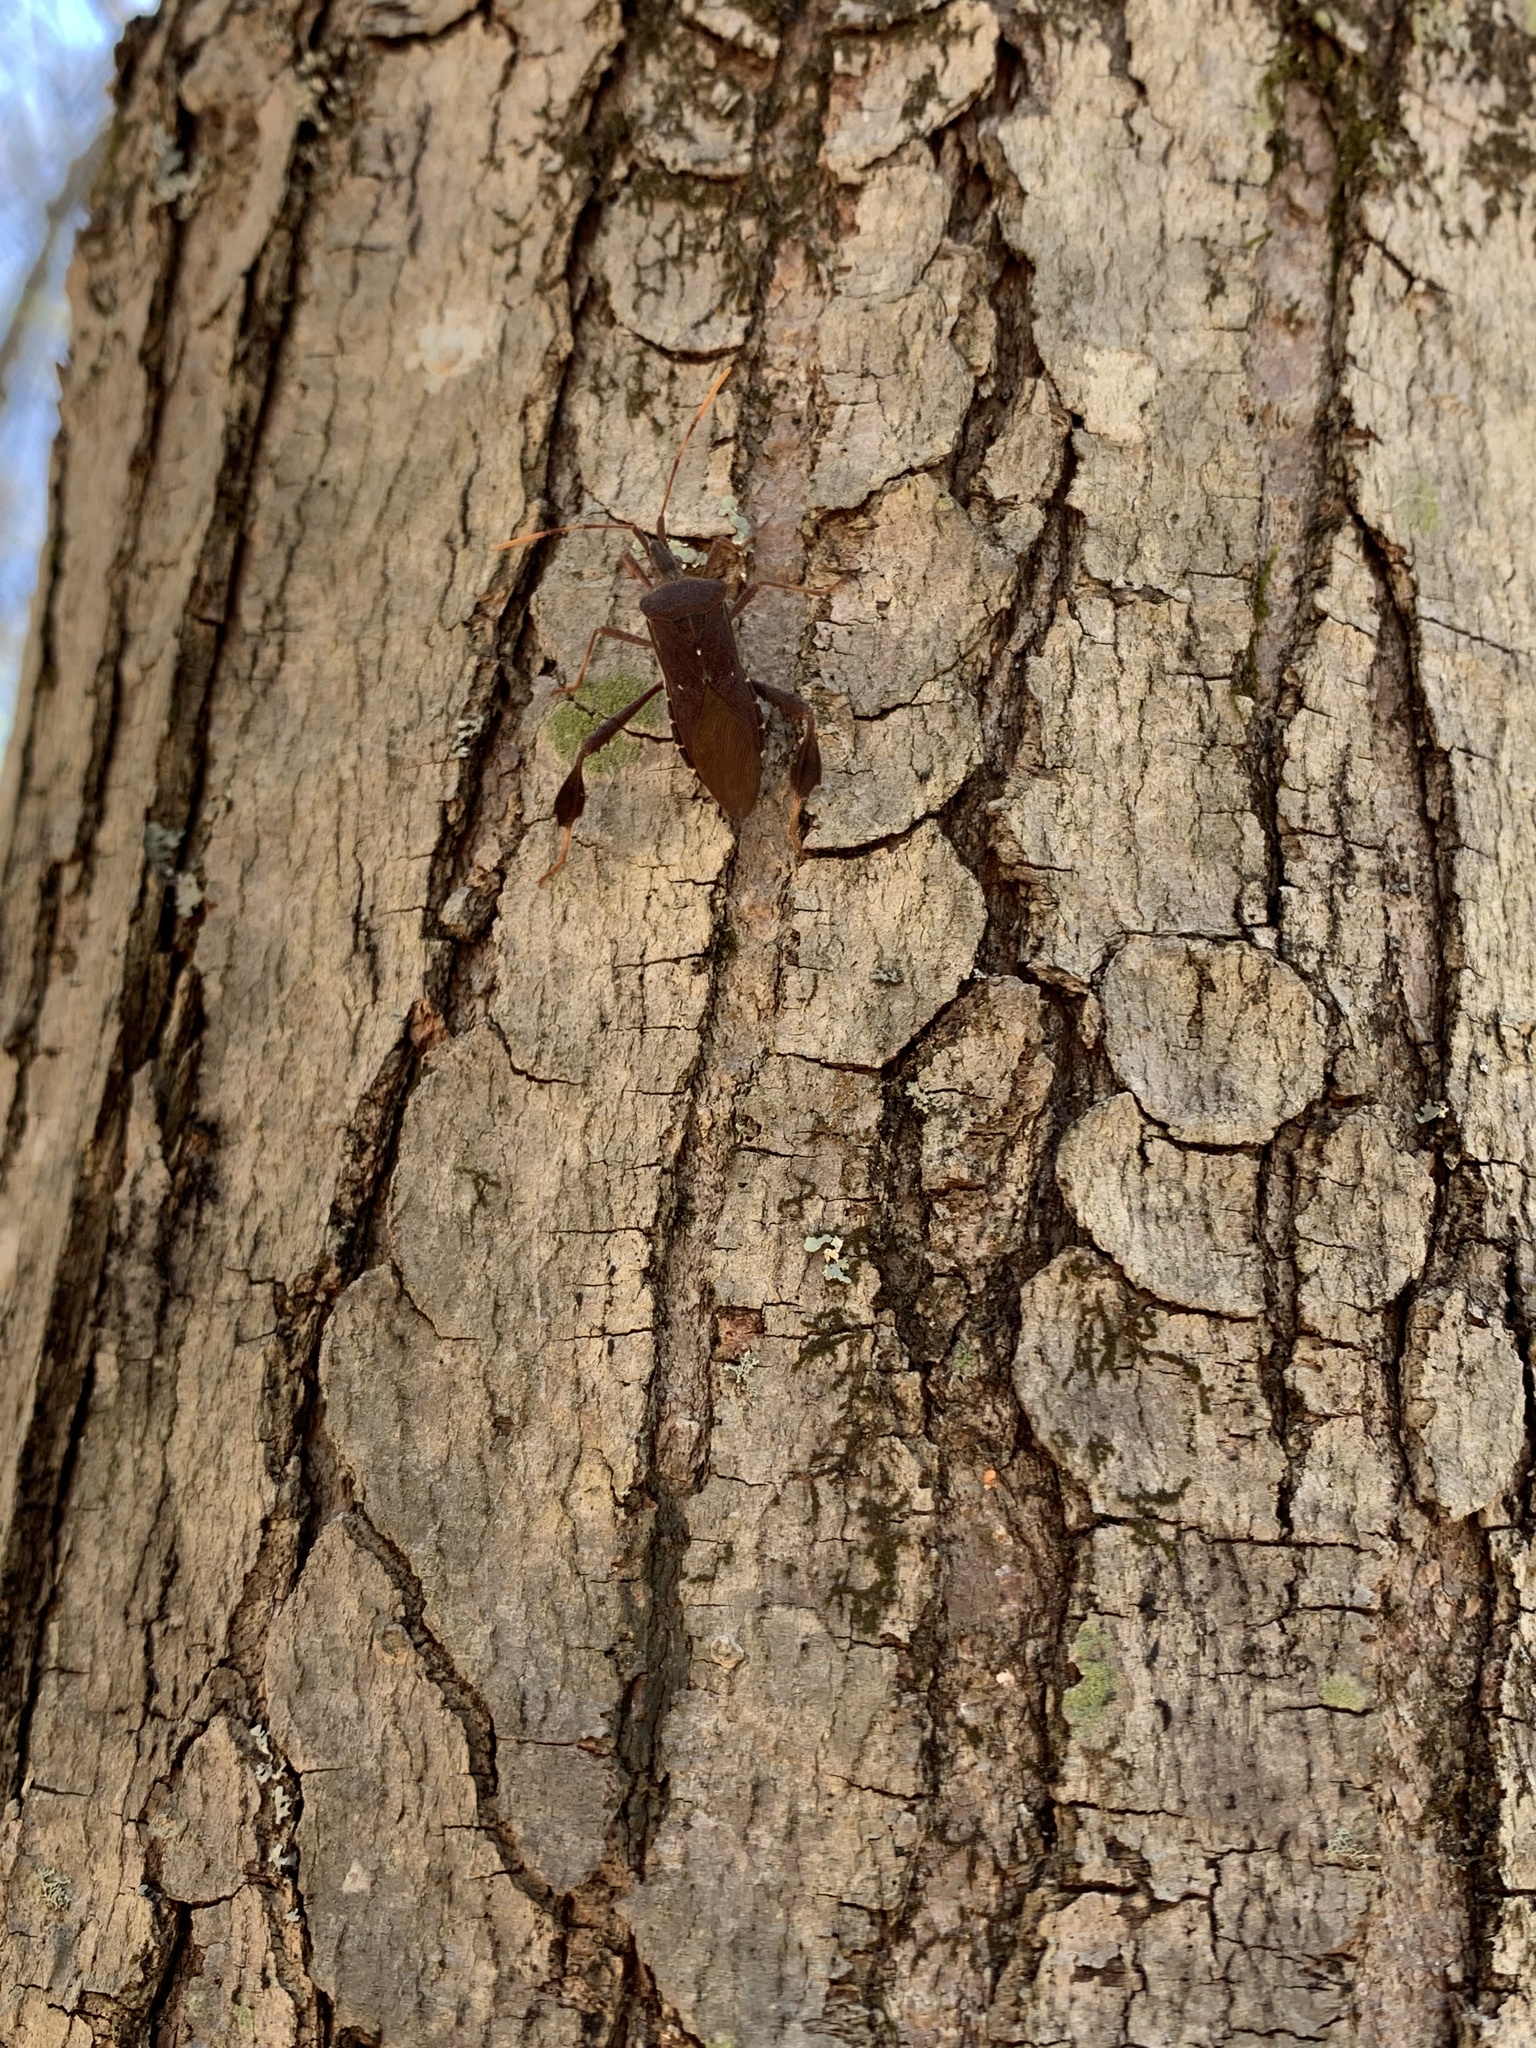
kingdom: Animalia
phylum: Arthropoda
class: Insecta
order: Hemiptera
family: Coreidae
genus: Leptoglossus
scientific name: Leptoglossus oppositus
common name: Northern leaf-footed bug
